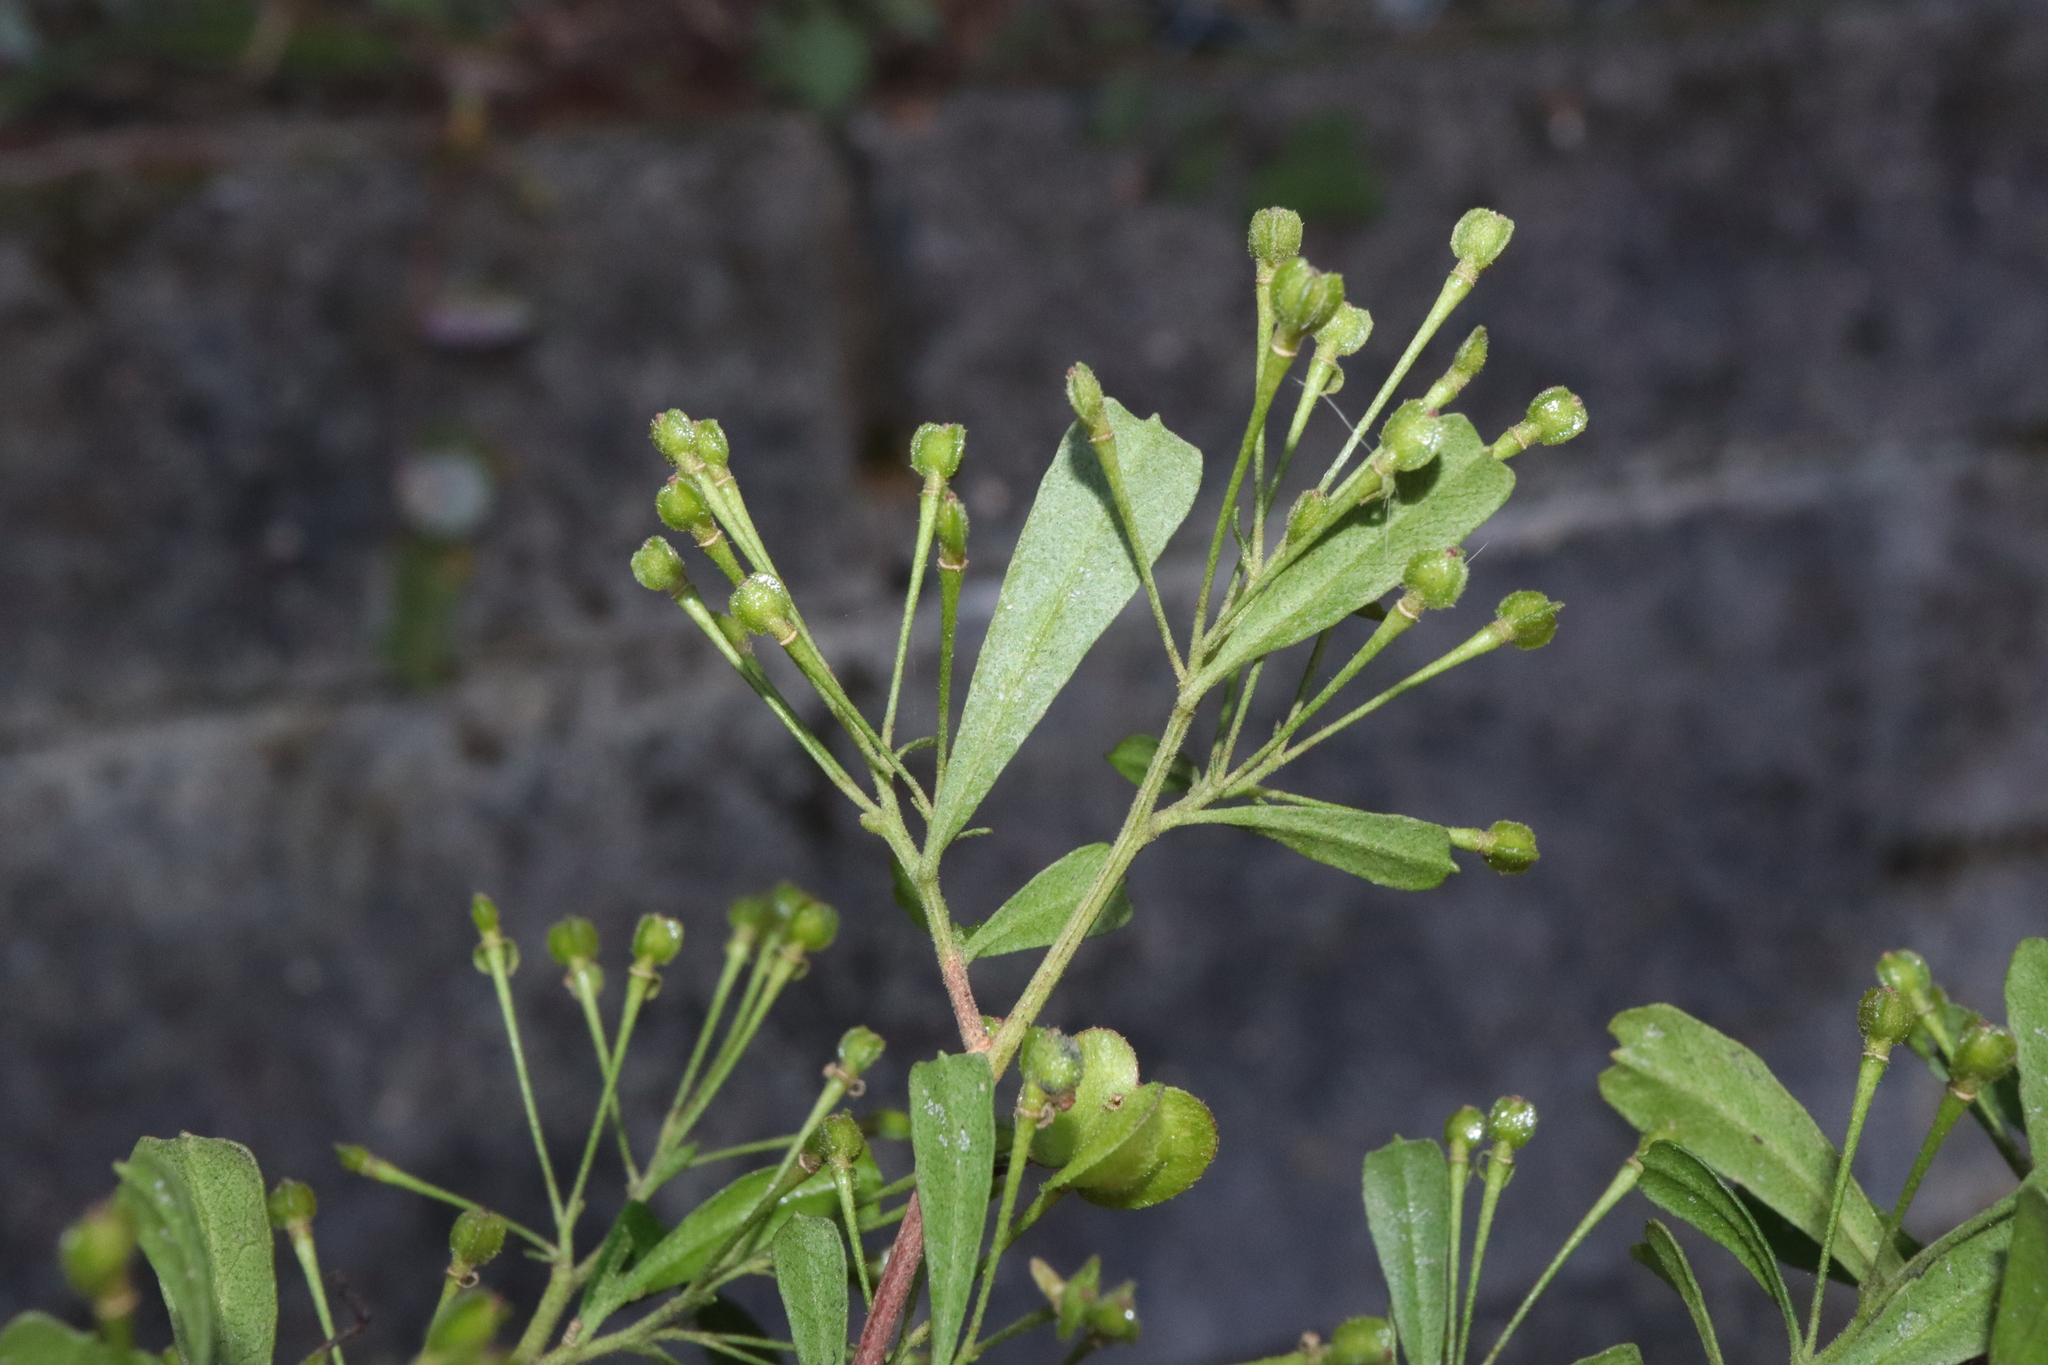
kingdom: Plantae
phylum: Tracheophyta
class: Magnoliopsida
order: Sapindales
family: Sapindaceae
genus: Dodonaea
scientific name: Dodonaea viscosa
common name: Hopbush
